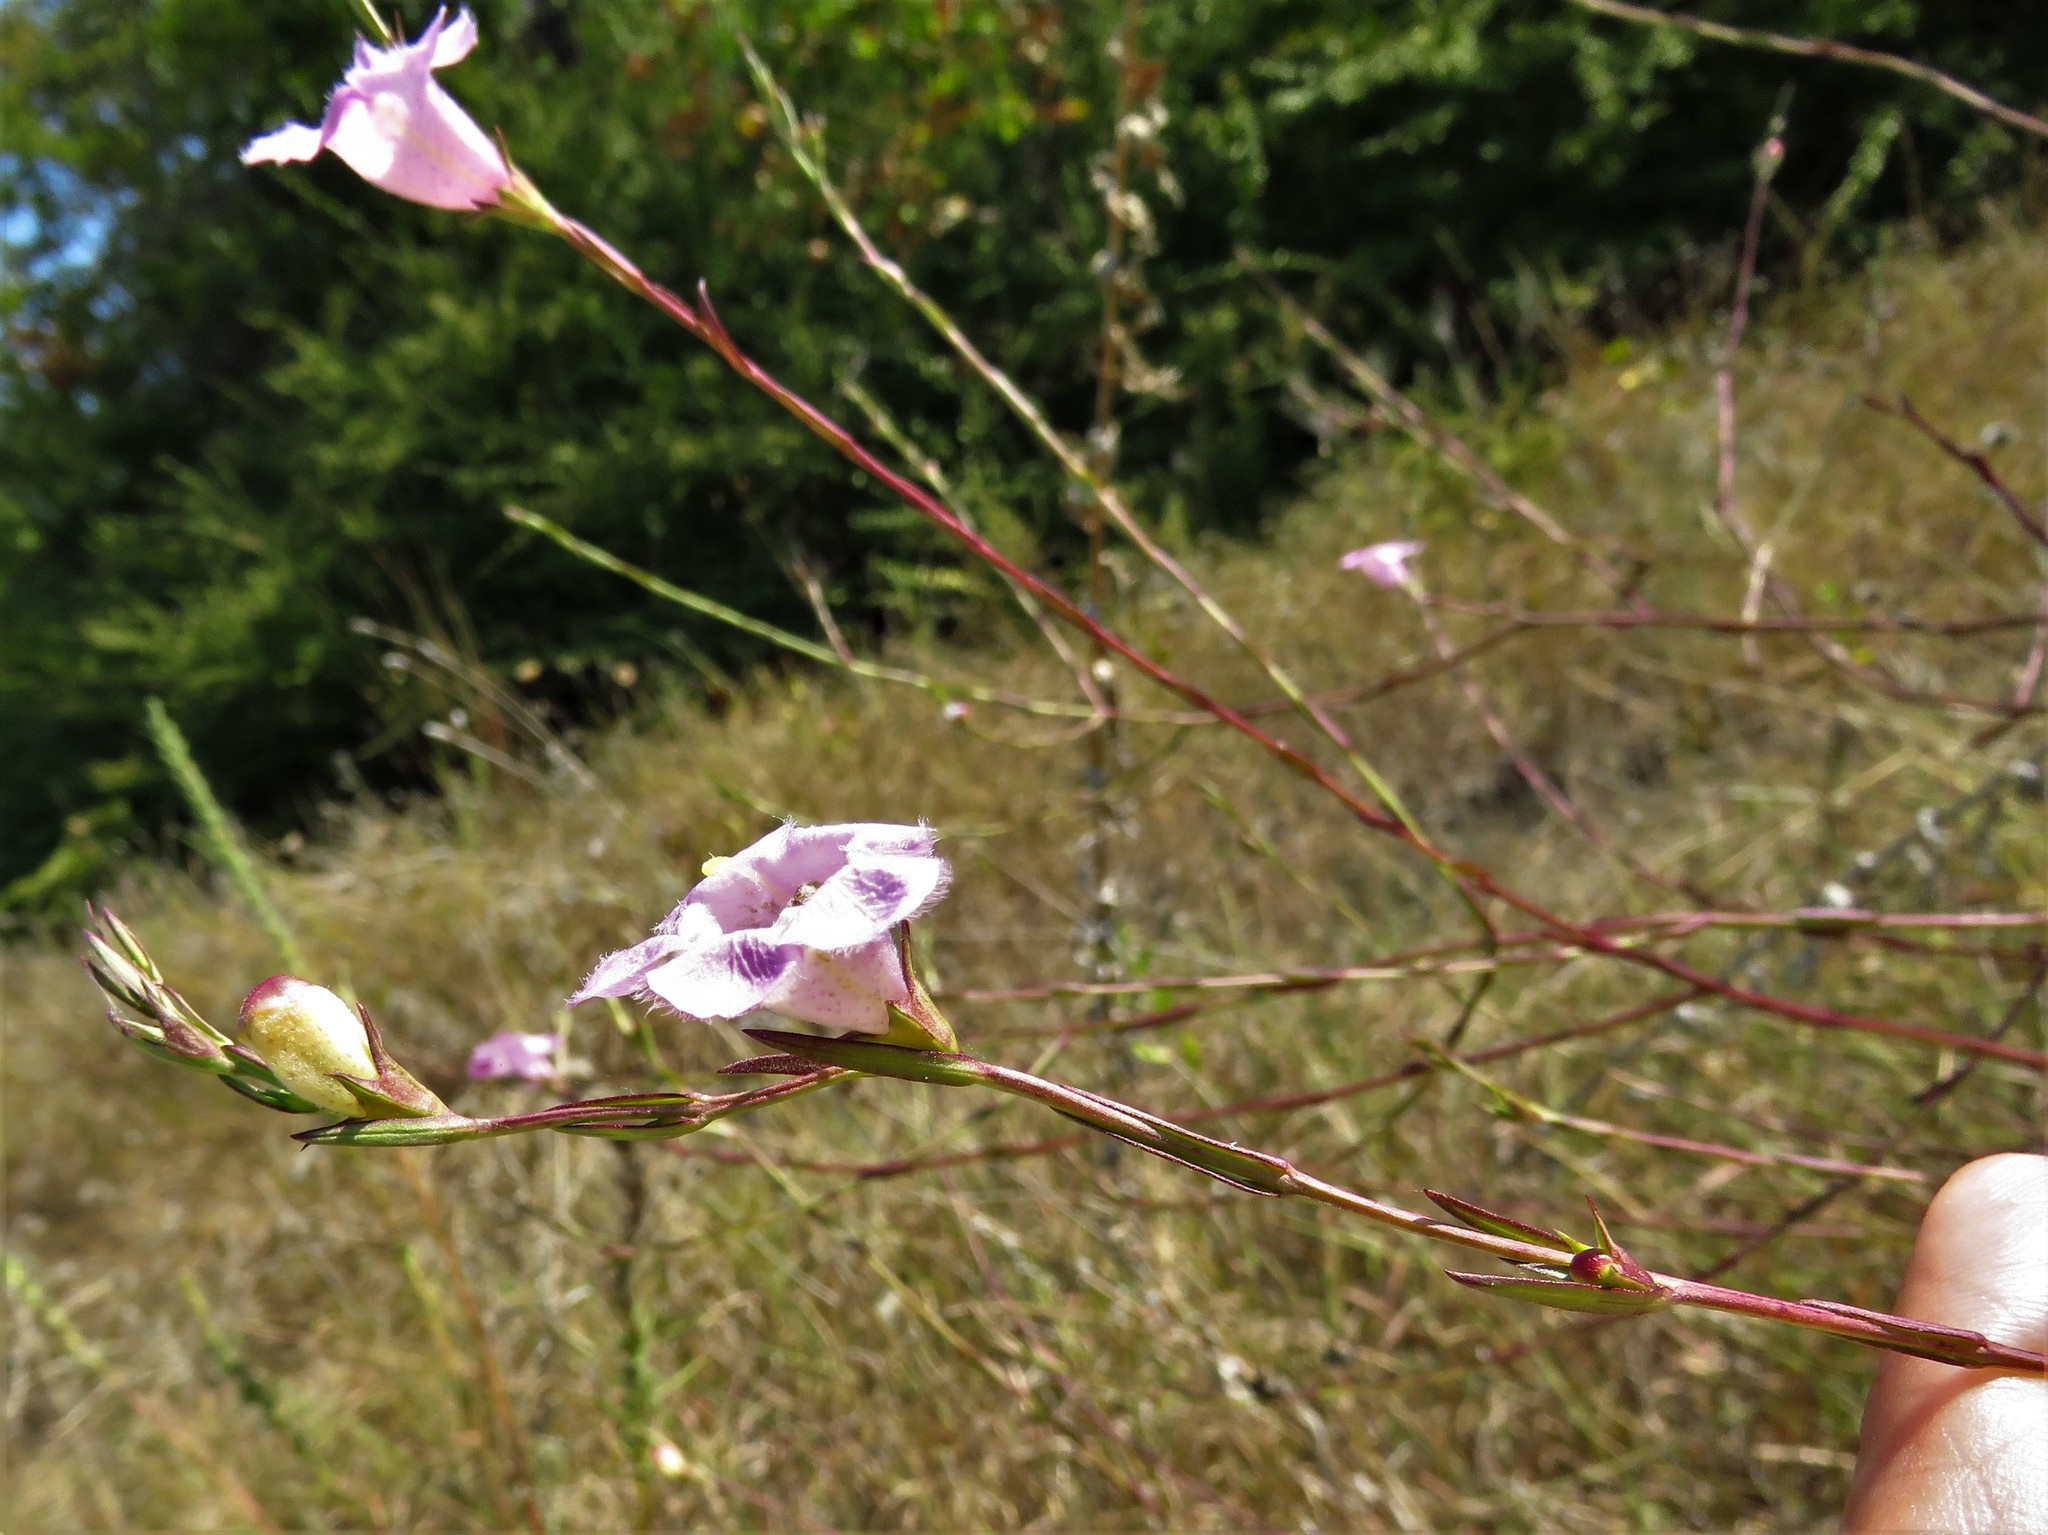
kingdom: Plantae
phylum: Tracheophyta
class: Magnoliopsida
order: Lamiales
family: Orobanchaceae
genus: Agalinis
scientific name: Agalinis heterophylla
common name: Prairie agalinis
